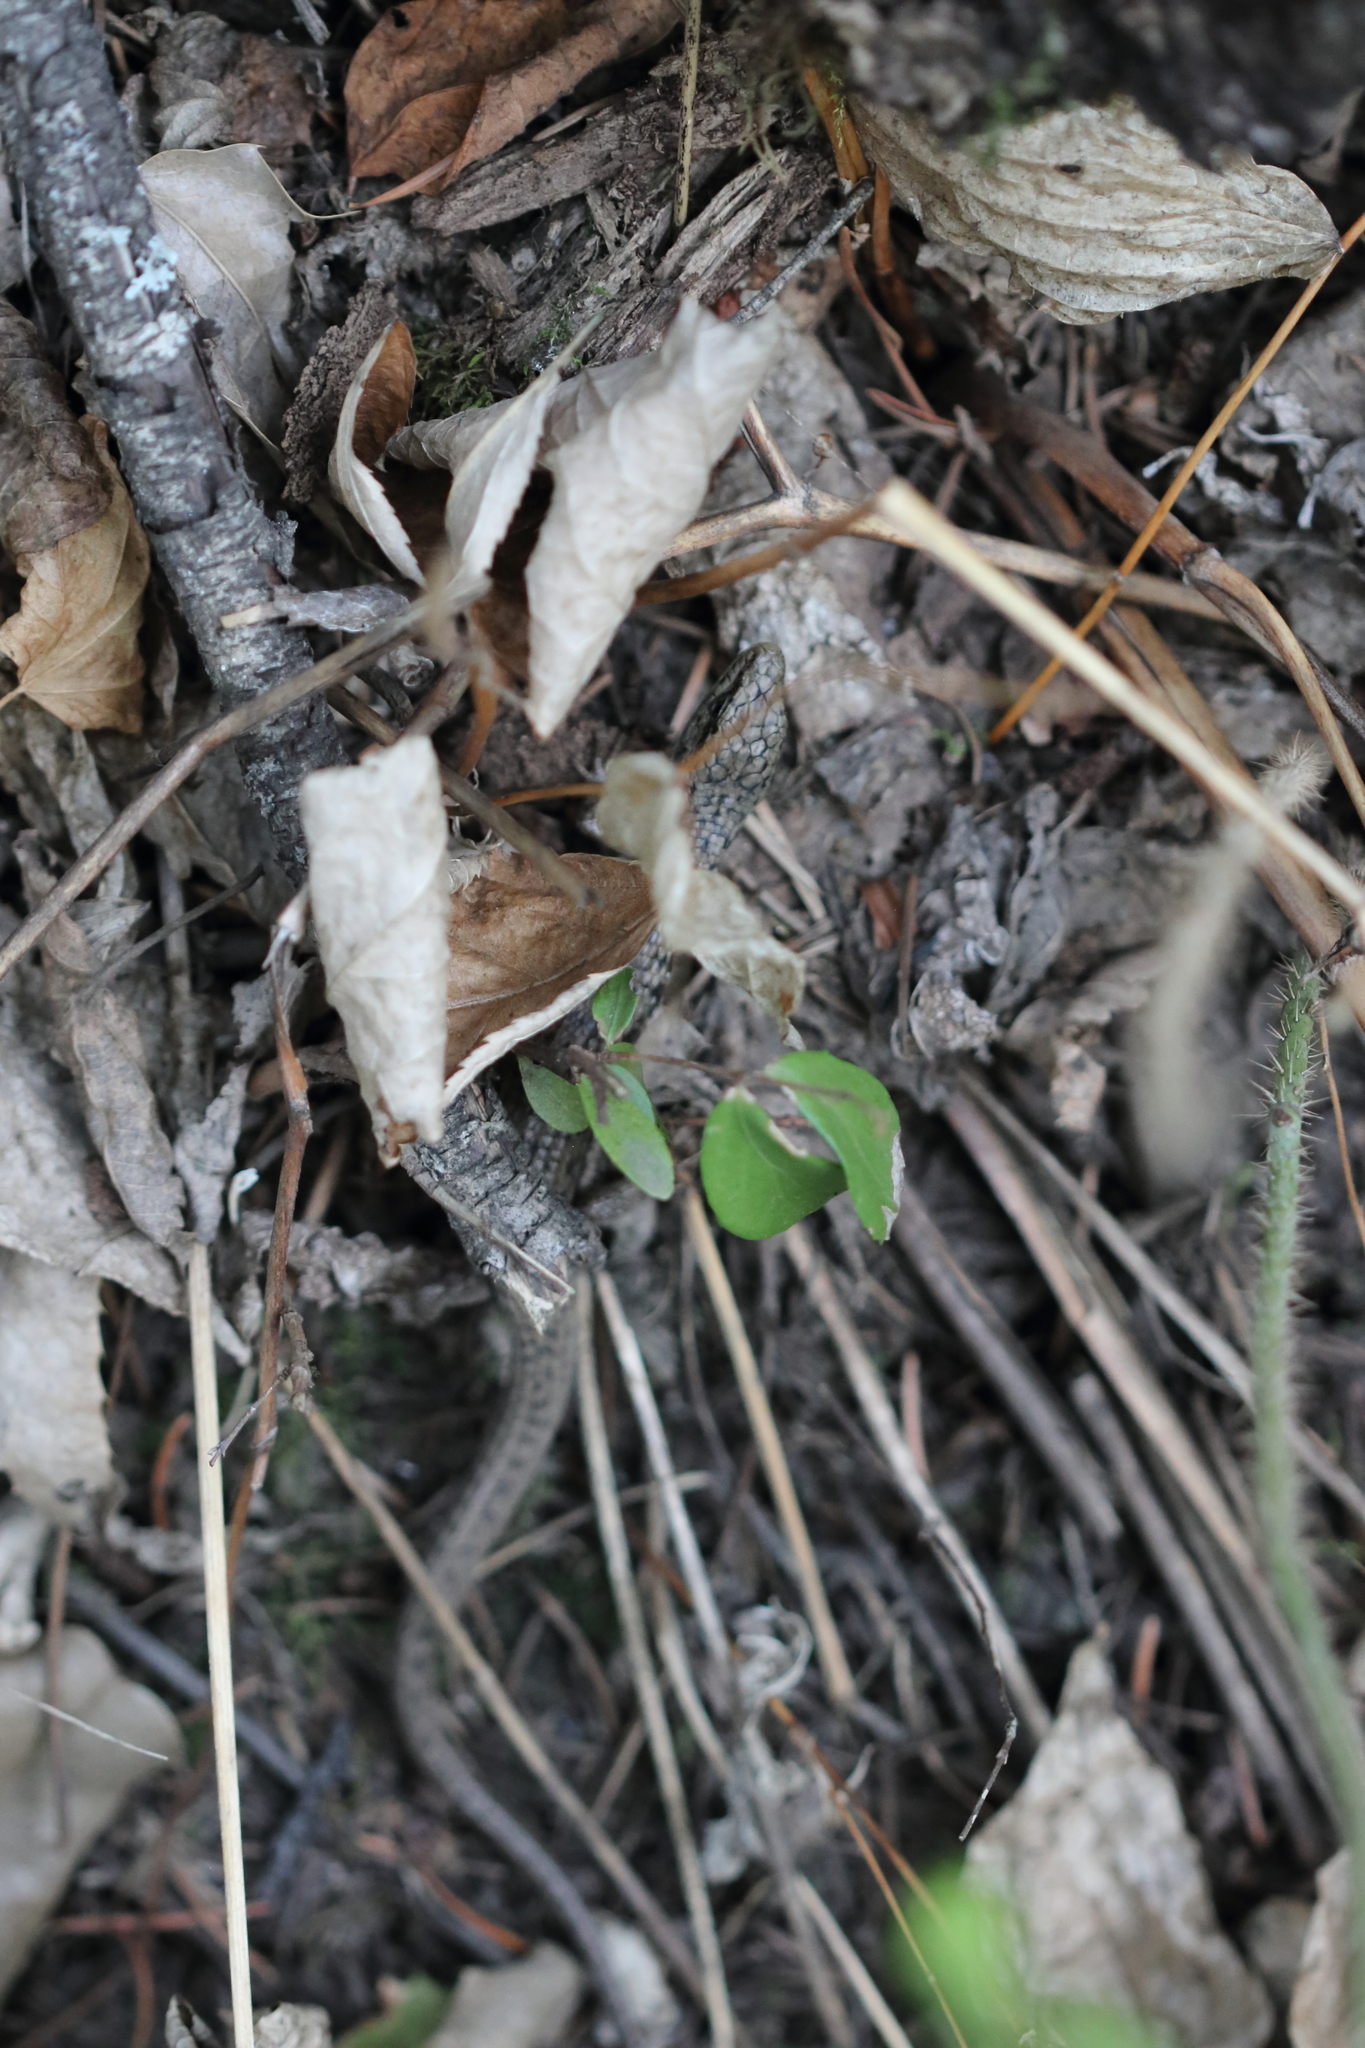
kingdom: Animalia
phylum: Chordata
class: Squamata
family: Anguidae
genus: Elgaria
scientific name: Elgaria coerulea
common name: Northern alligator lizard
